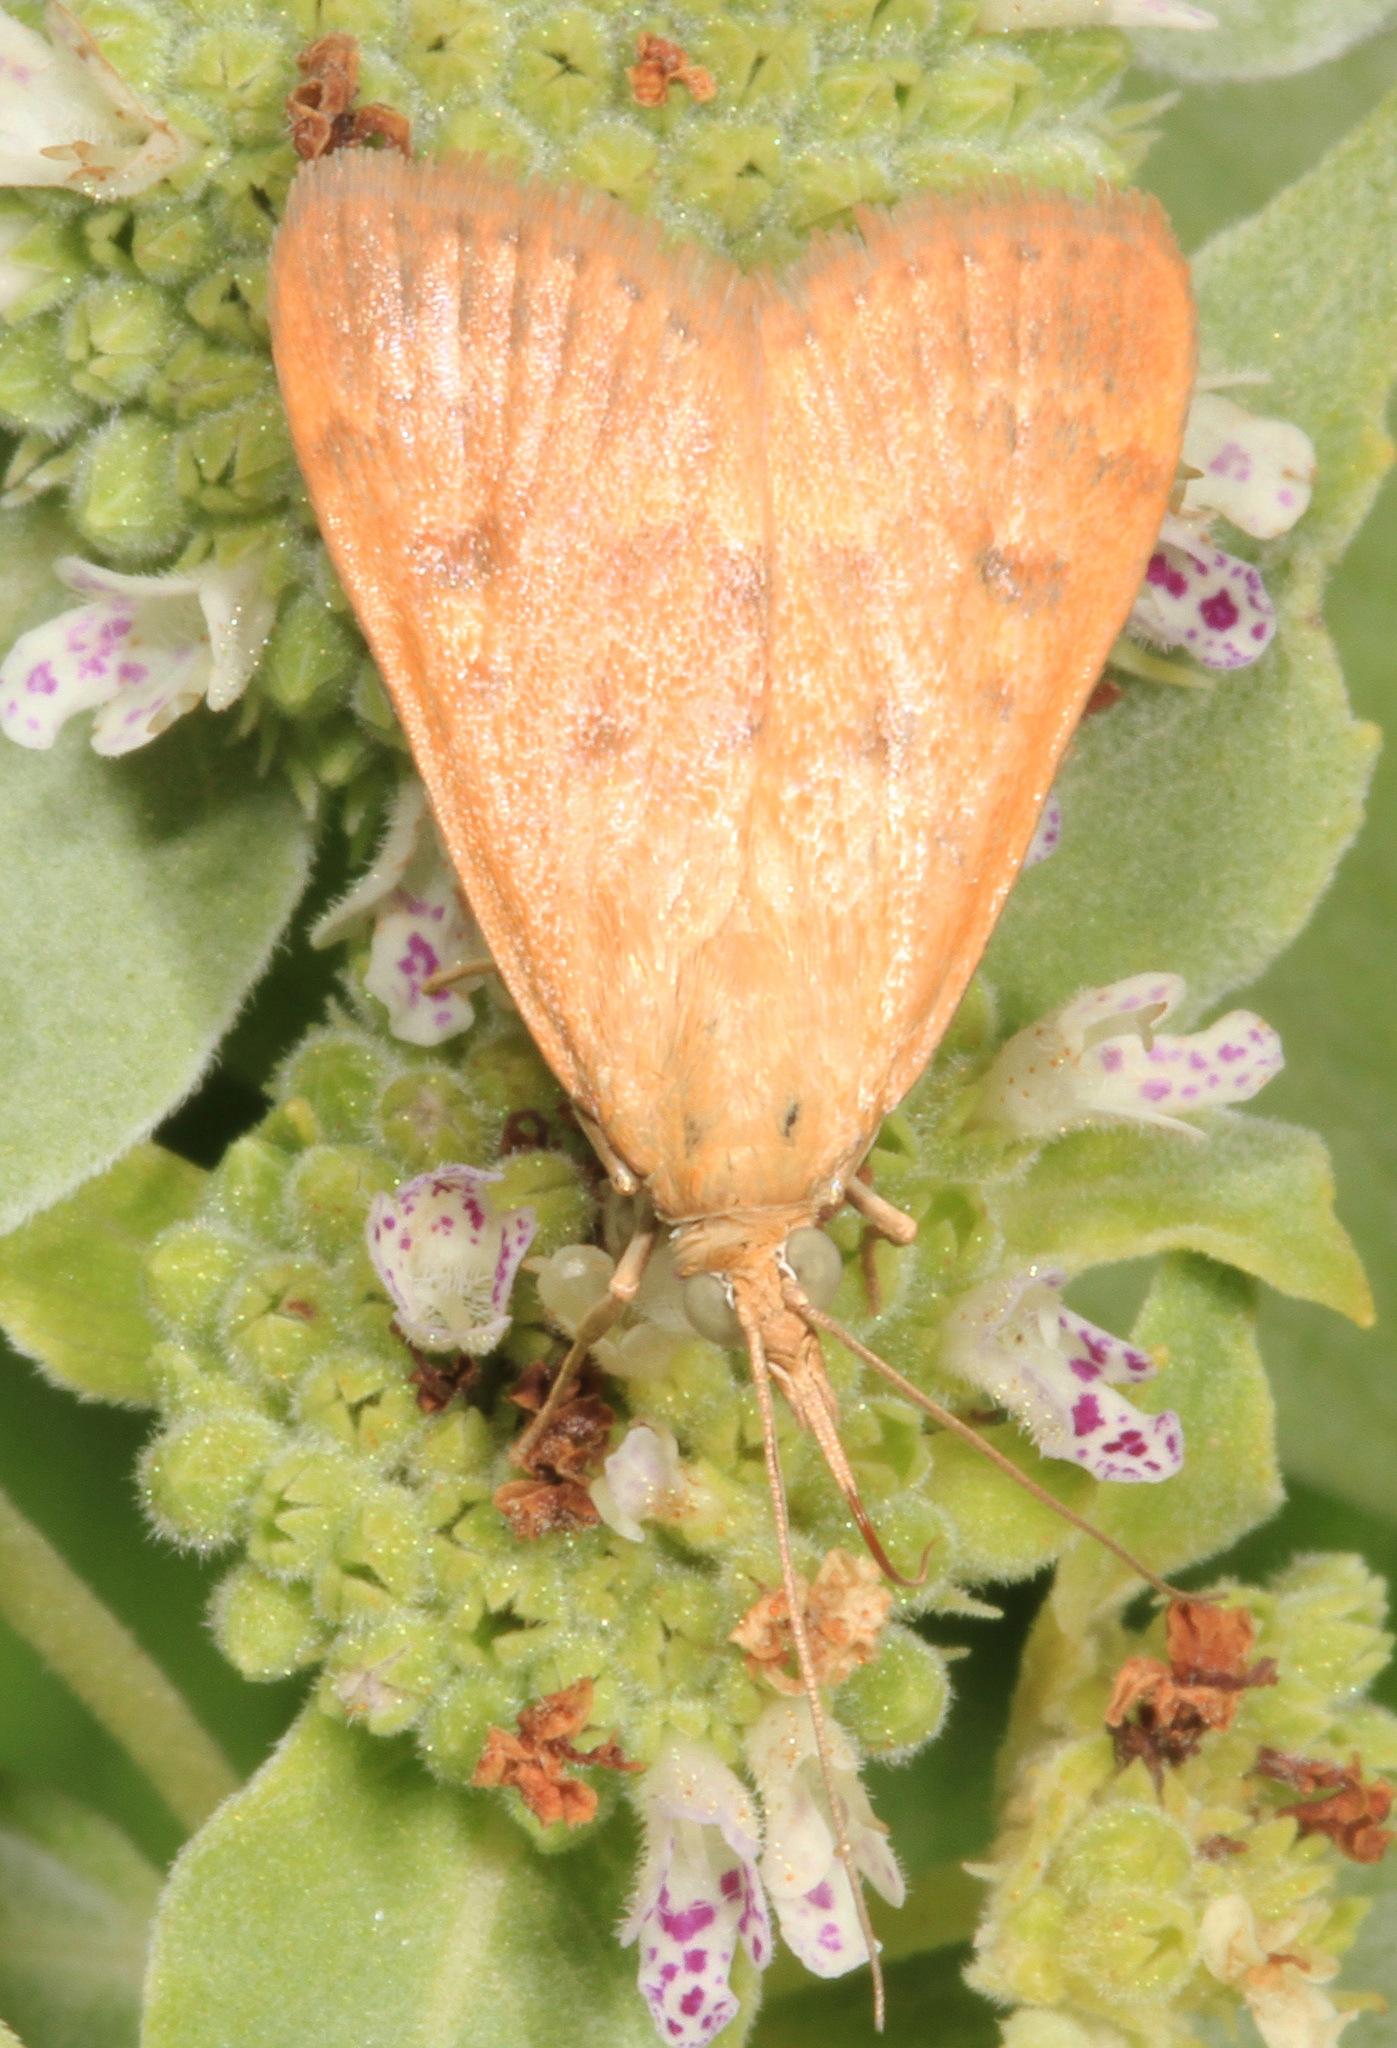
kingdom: Animalia
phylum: Arthropoda
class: Insecta
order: Lepidoptera
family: Crambidae
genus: Achyra
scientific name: Achyra rantalis
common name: Garden webworm
